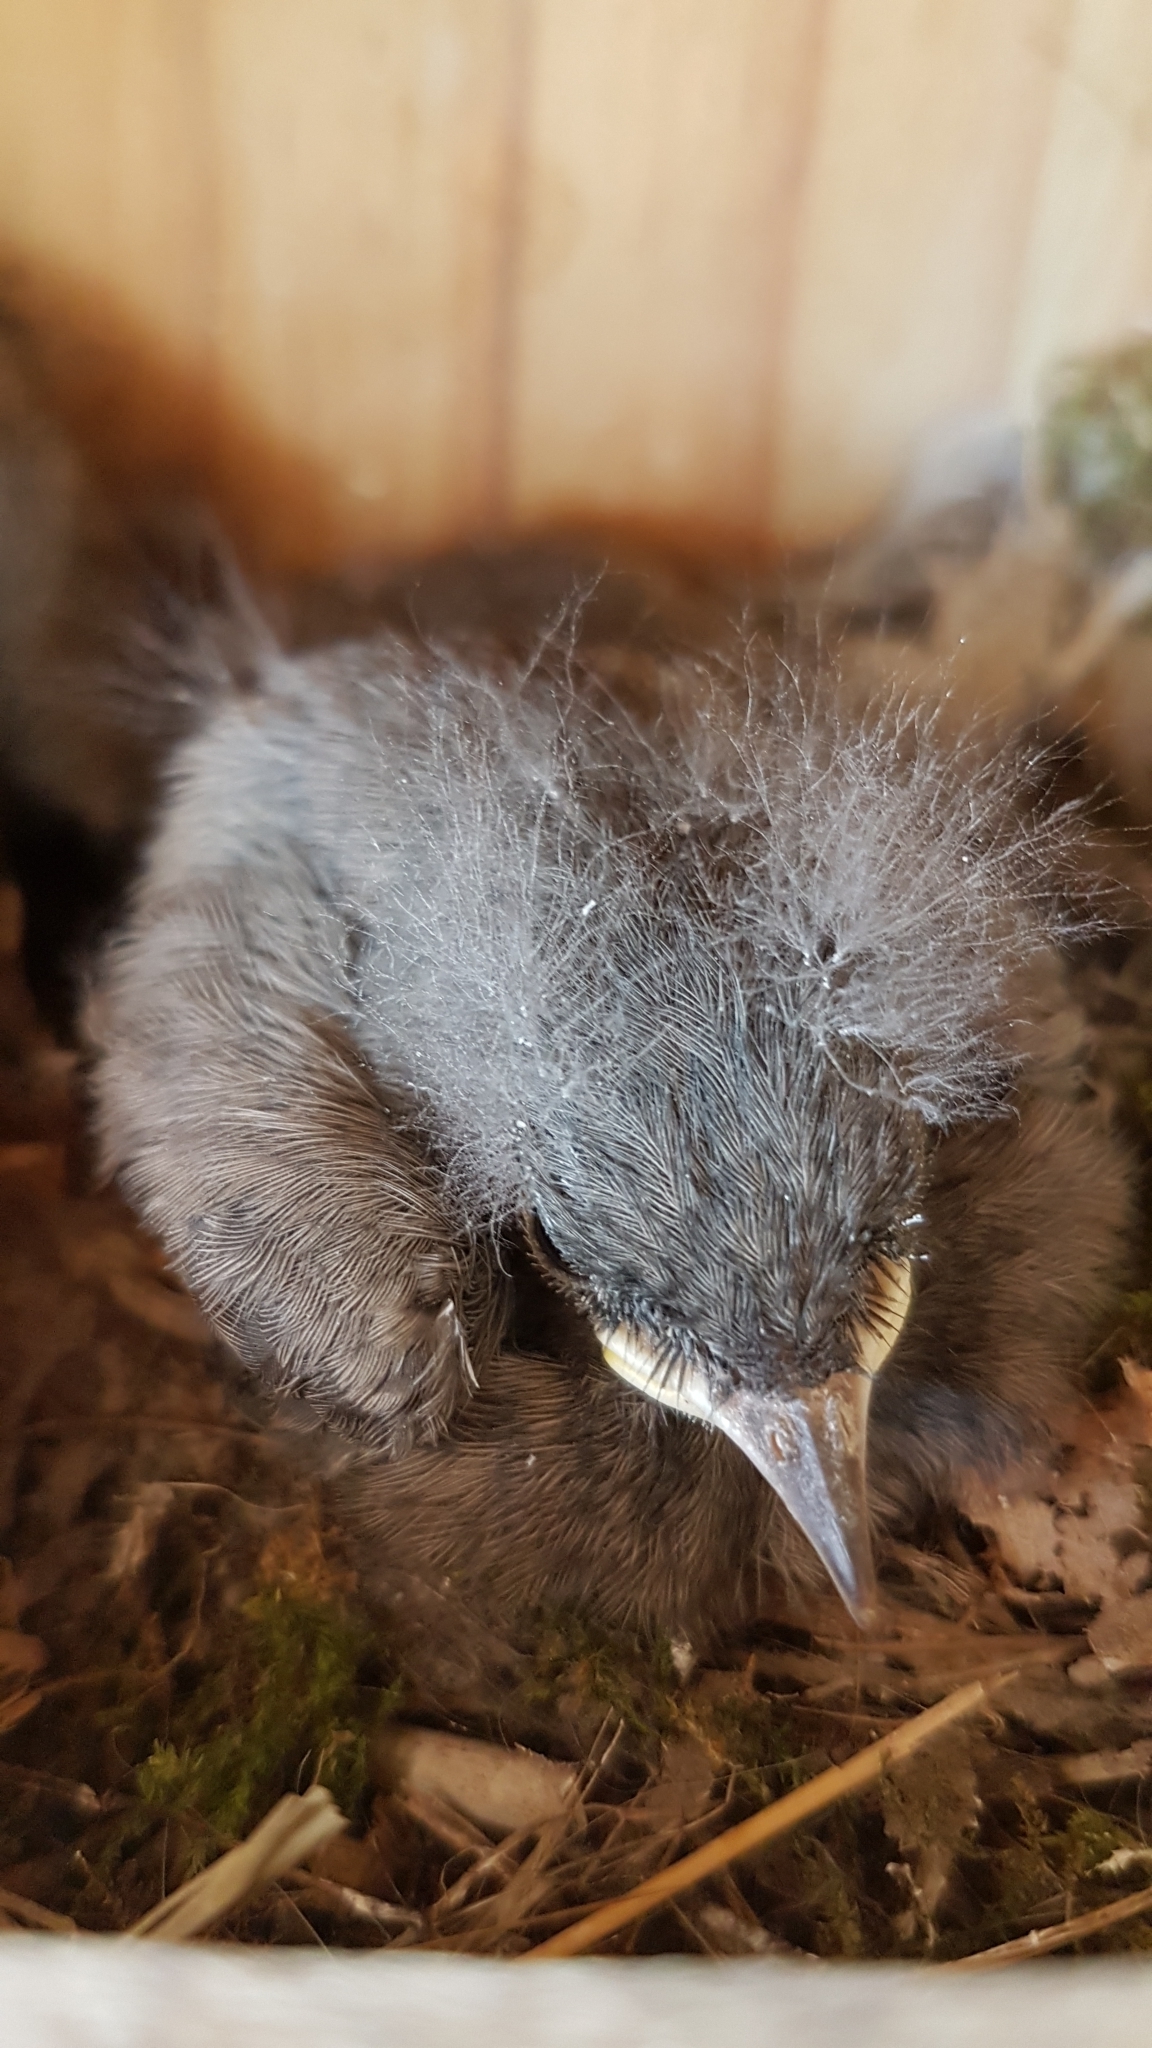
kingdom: Animalia
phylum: Chordata
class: Aves
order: Passeriformes
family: Muscicapidae
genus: Phoenicurus
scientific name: Phoenicurus ochruros
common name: Black redstart
